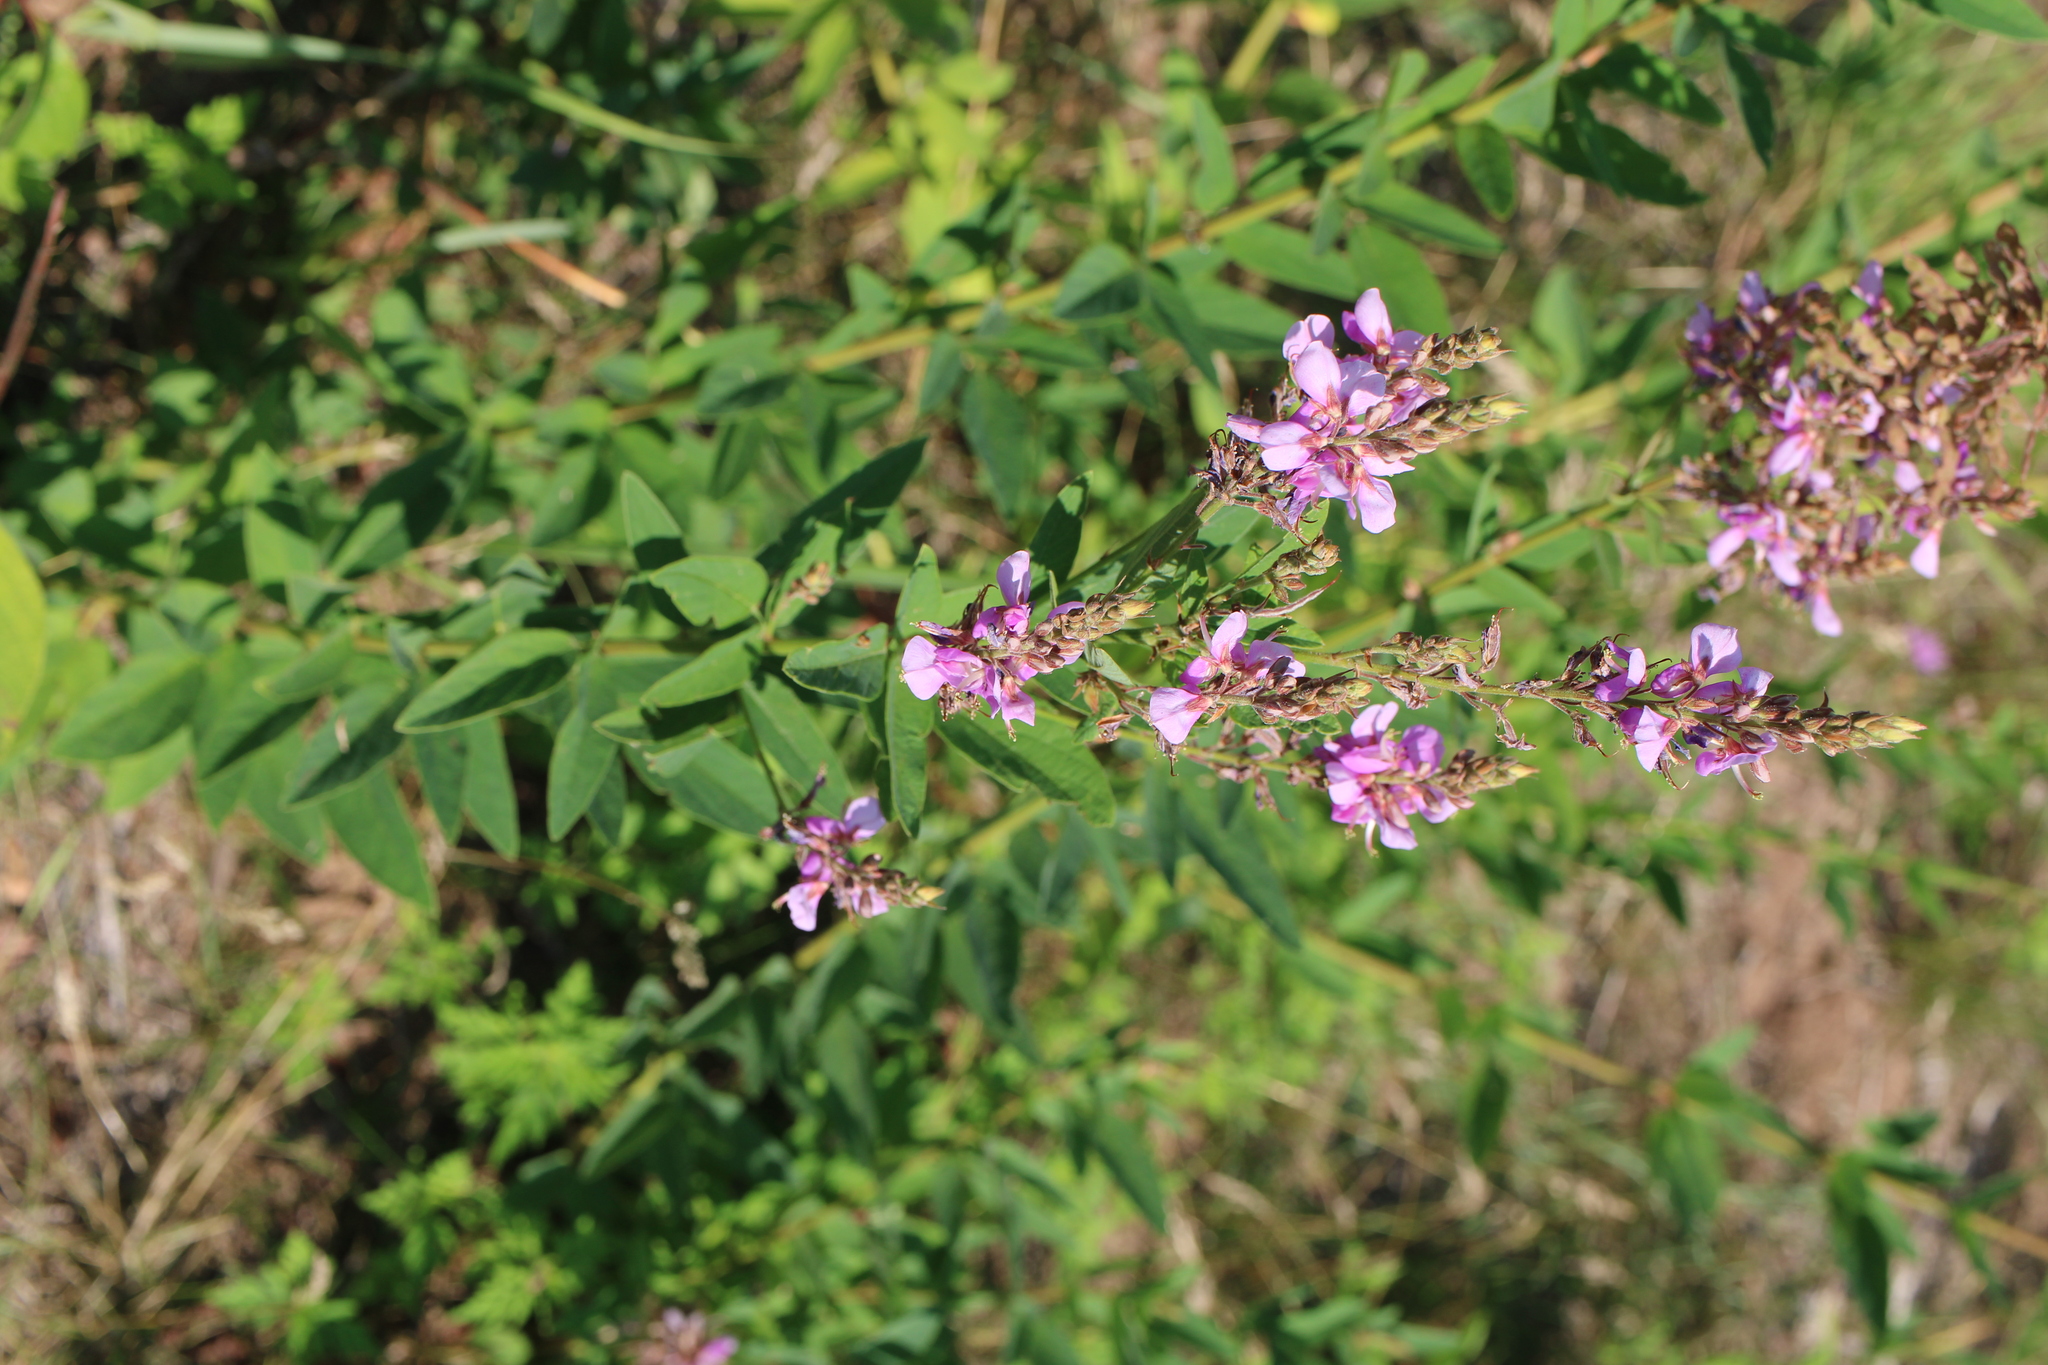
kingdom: Plantae
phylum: Tracheophyta
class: Magnoliopsida
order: Fabales
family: Fabaceae
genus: Desmodium
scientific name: Desmodium canadense
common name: Canada tick-trefoil
